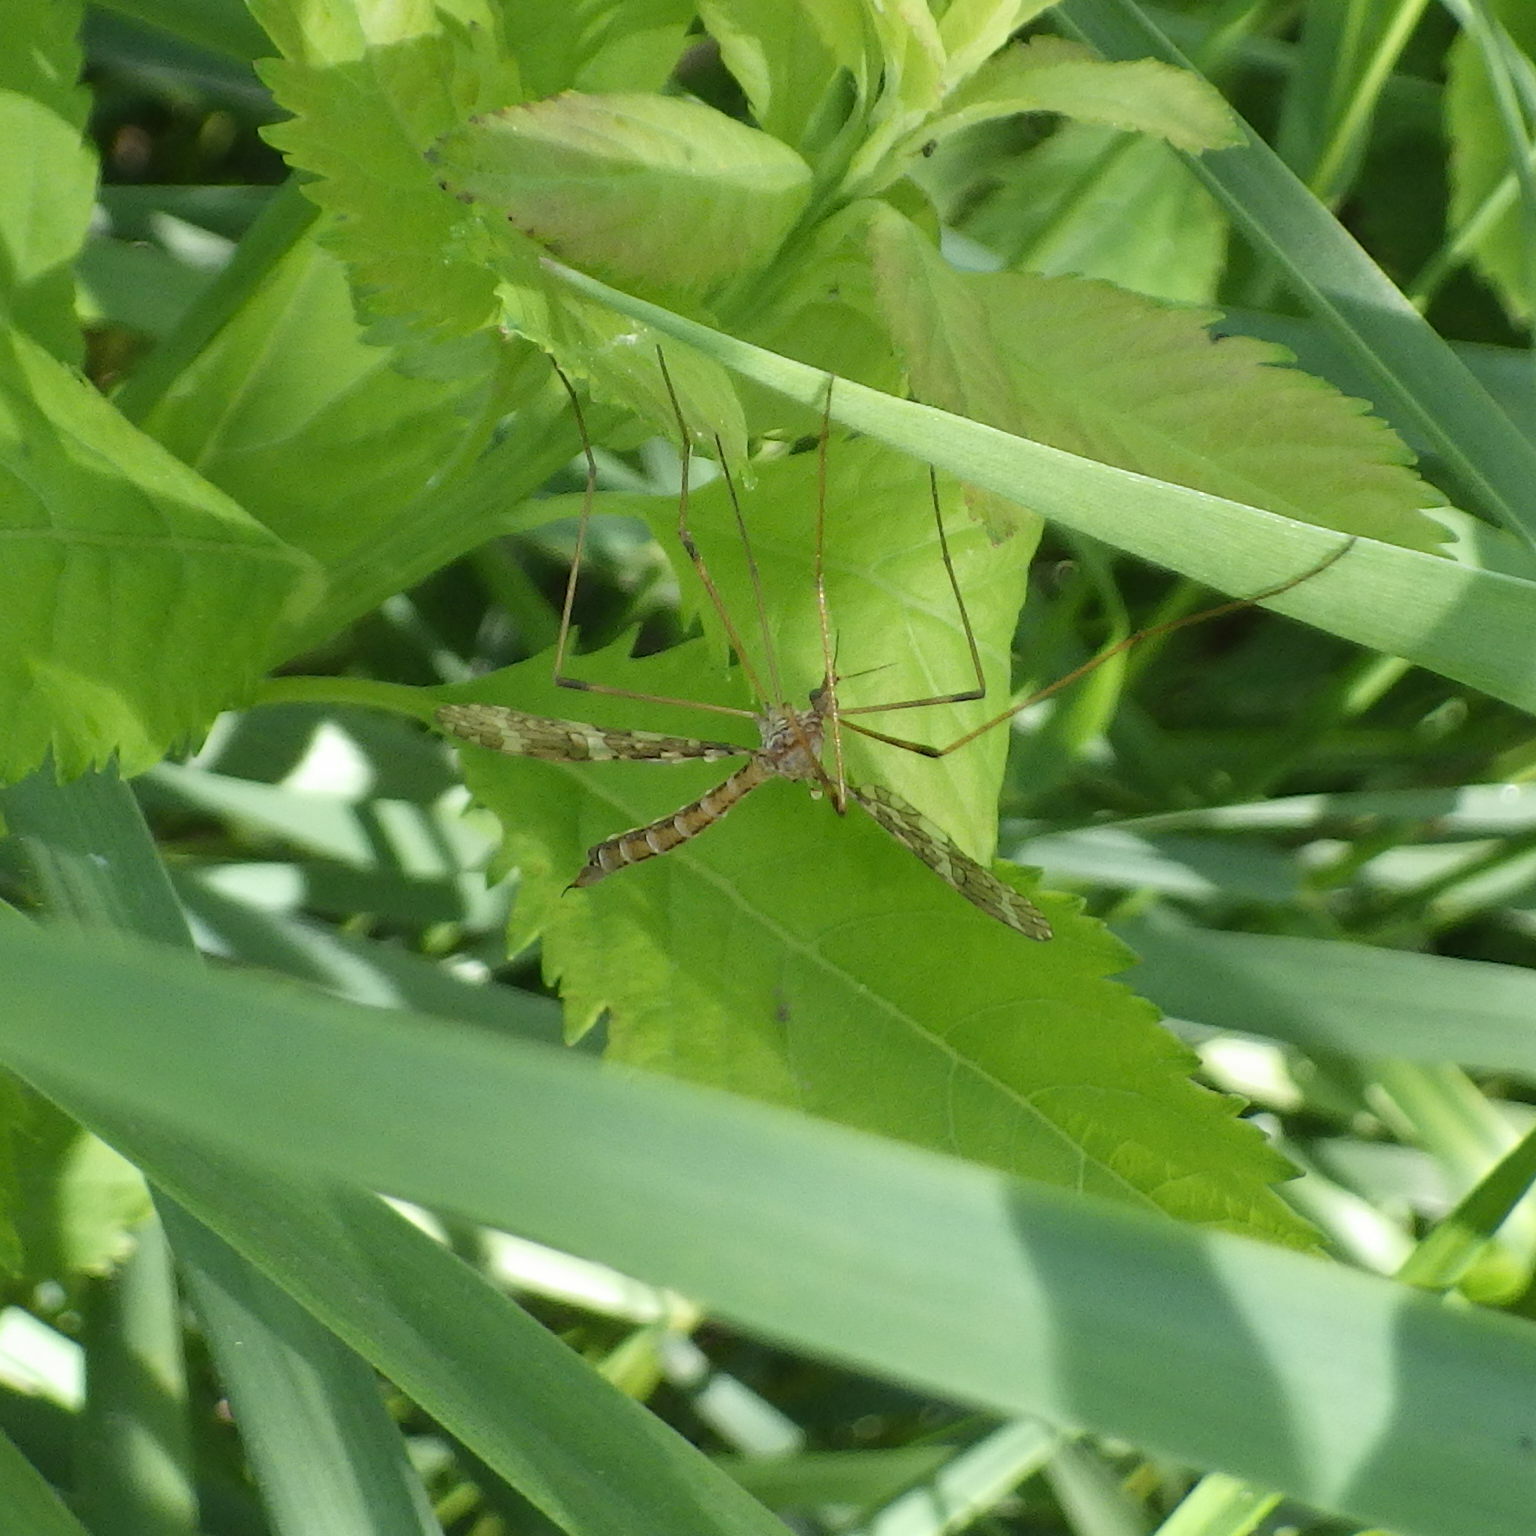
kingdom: Animalia
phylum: Arthropoda
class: Insecta
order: Diptera
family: Limoniidae
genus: Epiphragma
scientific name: Epiphragma fasciapenne
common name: Band-winged crane fly
